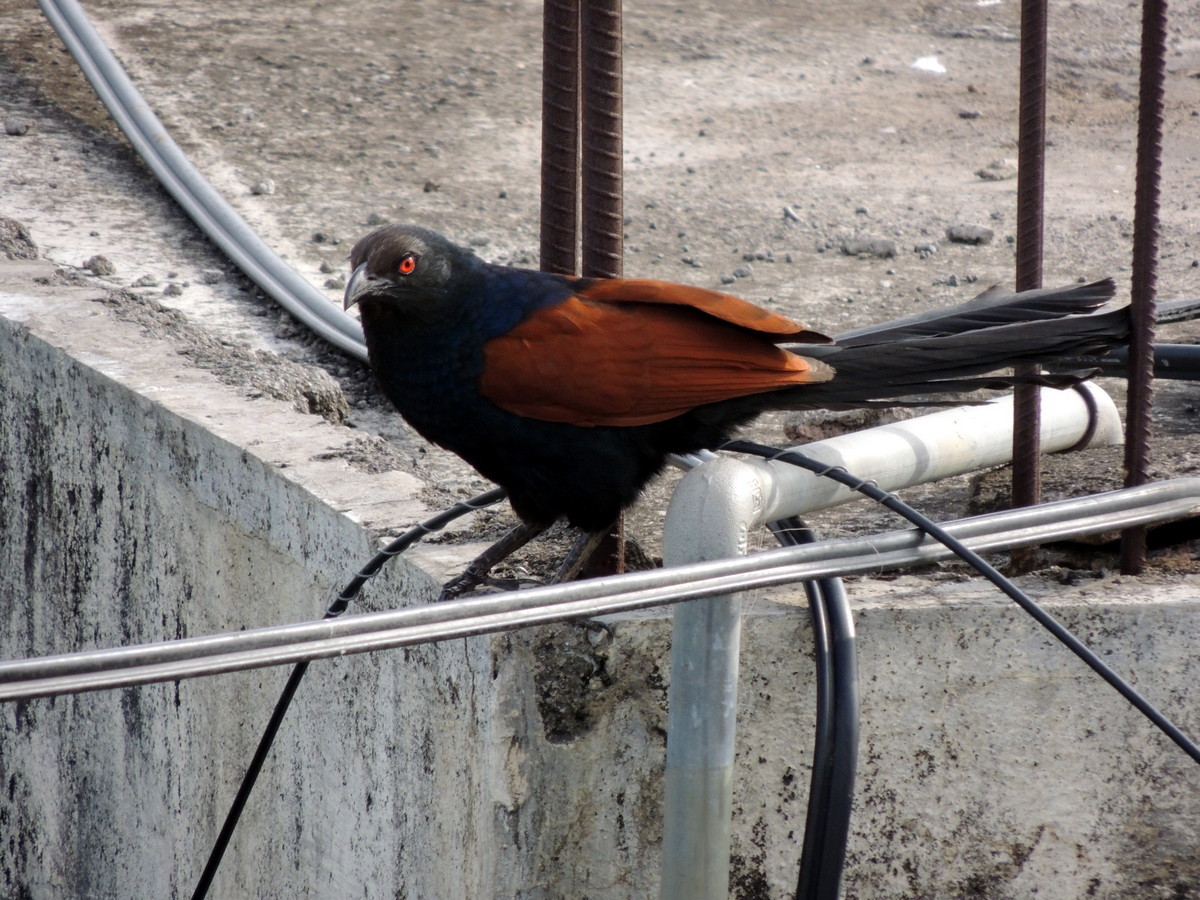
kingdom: Animalia
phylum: Chordata
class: Aves
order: Cuculiformes
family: Cuculidae
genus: Centropus
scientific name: Centropus sinensis
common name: Greater coucal
